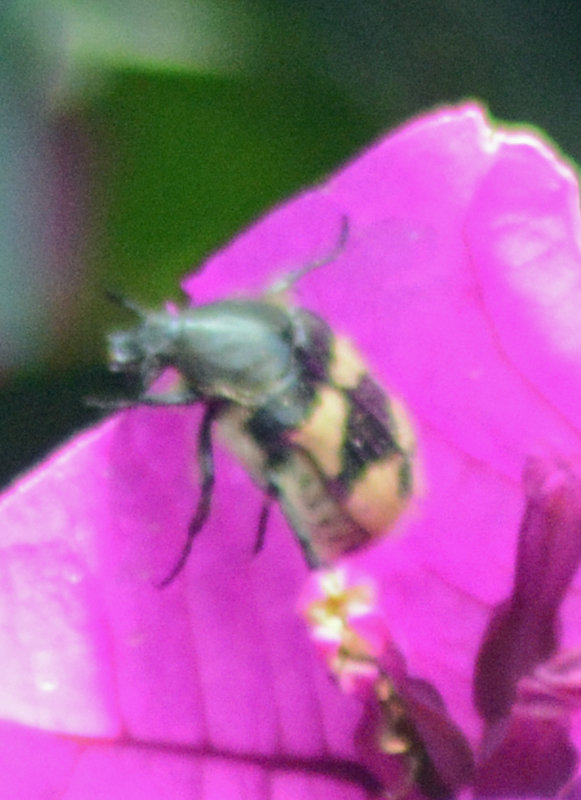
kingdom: Animalia
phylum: Arthropoda
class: Insecta
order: Coleoptera
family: Scarabaeidae
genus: Euphoria
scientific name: Euphoria basalis
